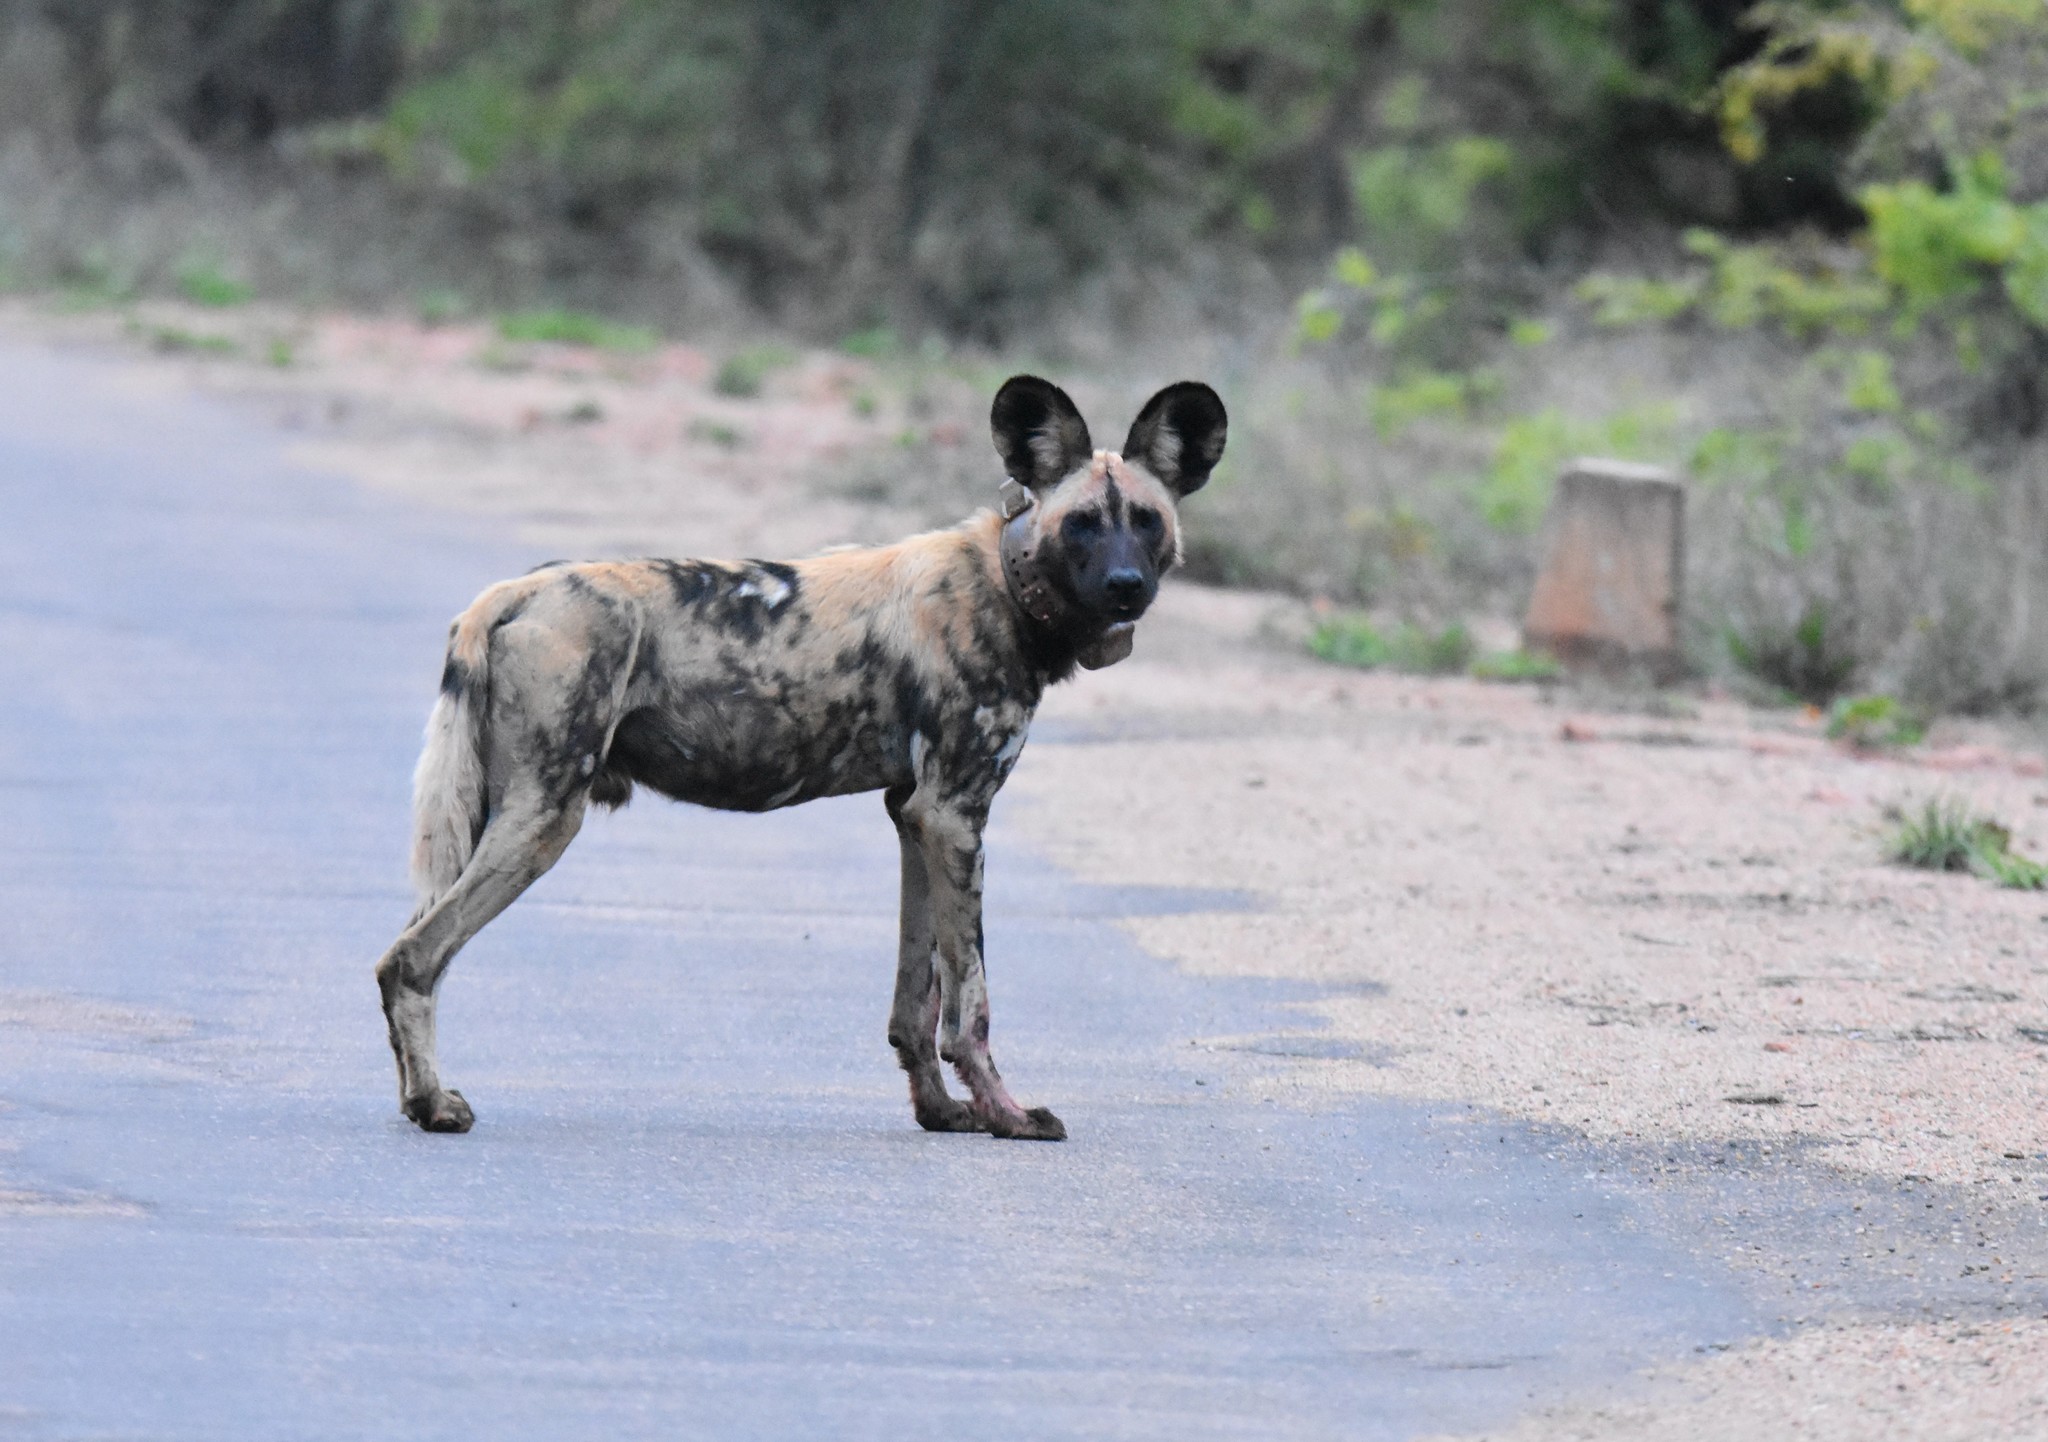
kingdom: Animalia
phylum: Chordata
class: Mammalia
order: Carnivora
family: Canidae
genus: Lycaon
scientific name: Lycaon pictus
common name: African wild dog
